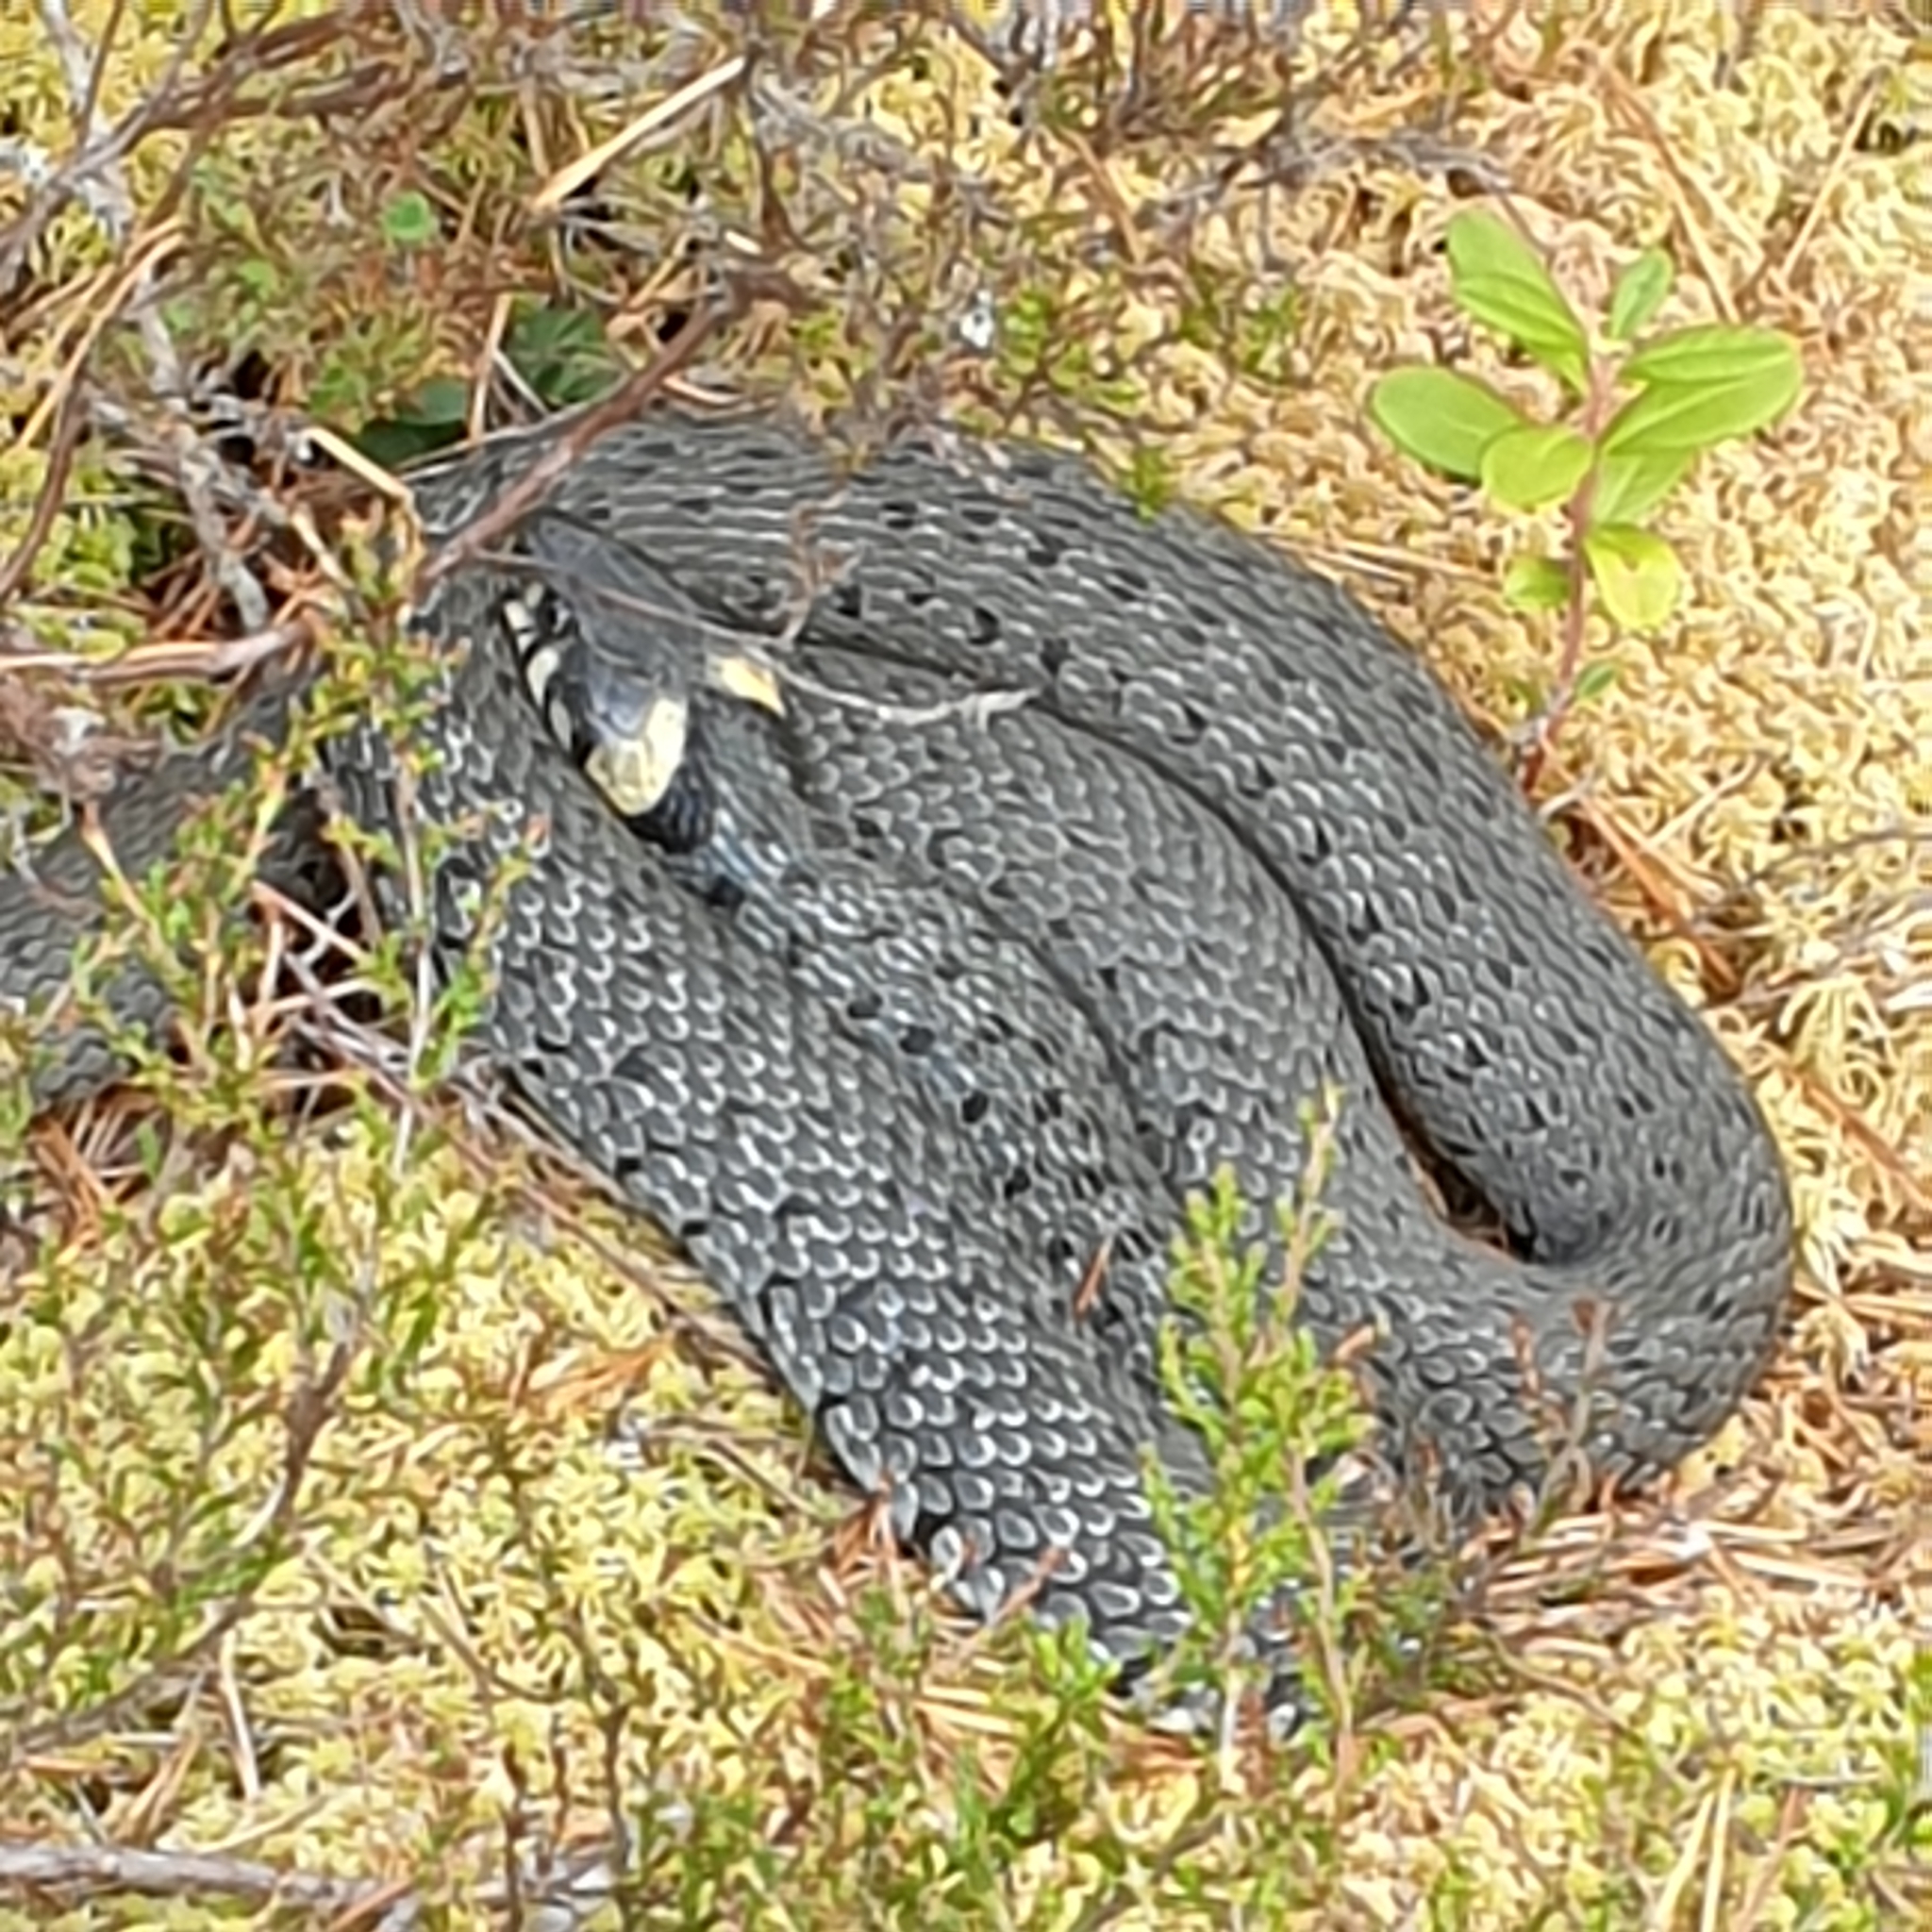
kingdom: Animalia
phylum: Chordata
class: Squamata
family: Colubridae
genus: Natrix
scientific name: Natrix natrix
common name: Grass snake
